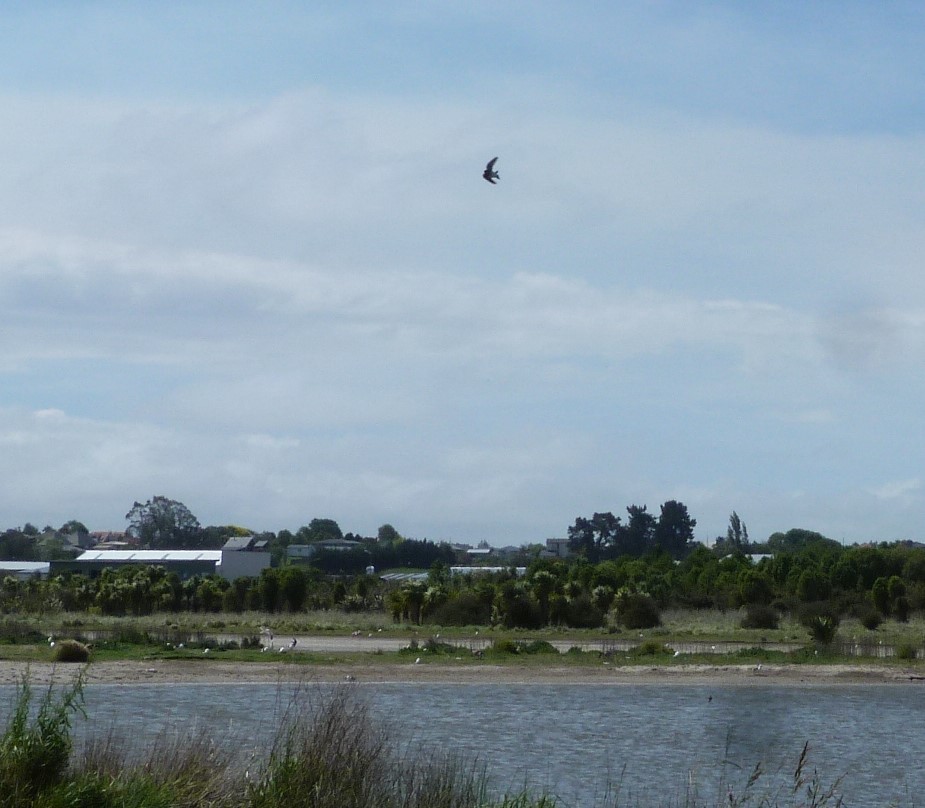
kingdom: Animalia
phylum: Chordata
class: Aves
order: Passeriformes
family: Hirundinidae
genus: Hirundo
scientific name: Hirundo neoxena
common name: Welcome swallow
